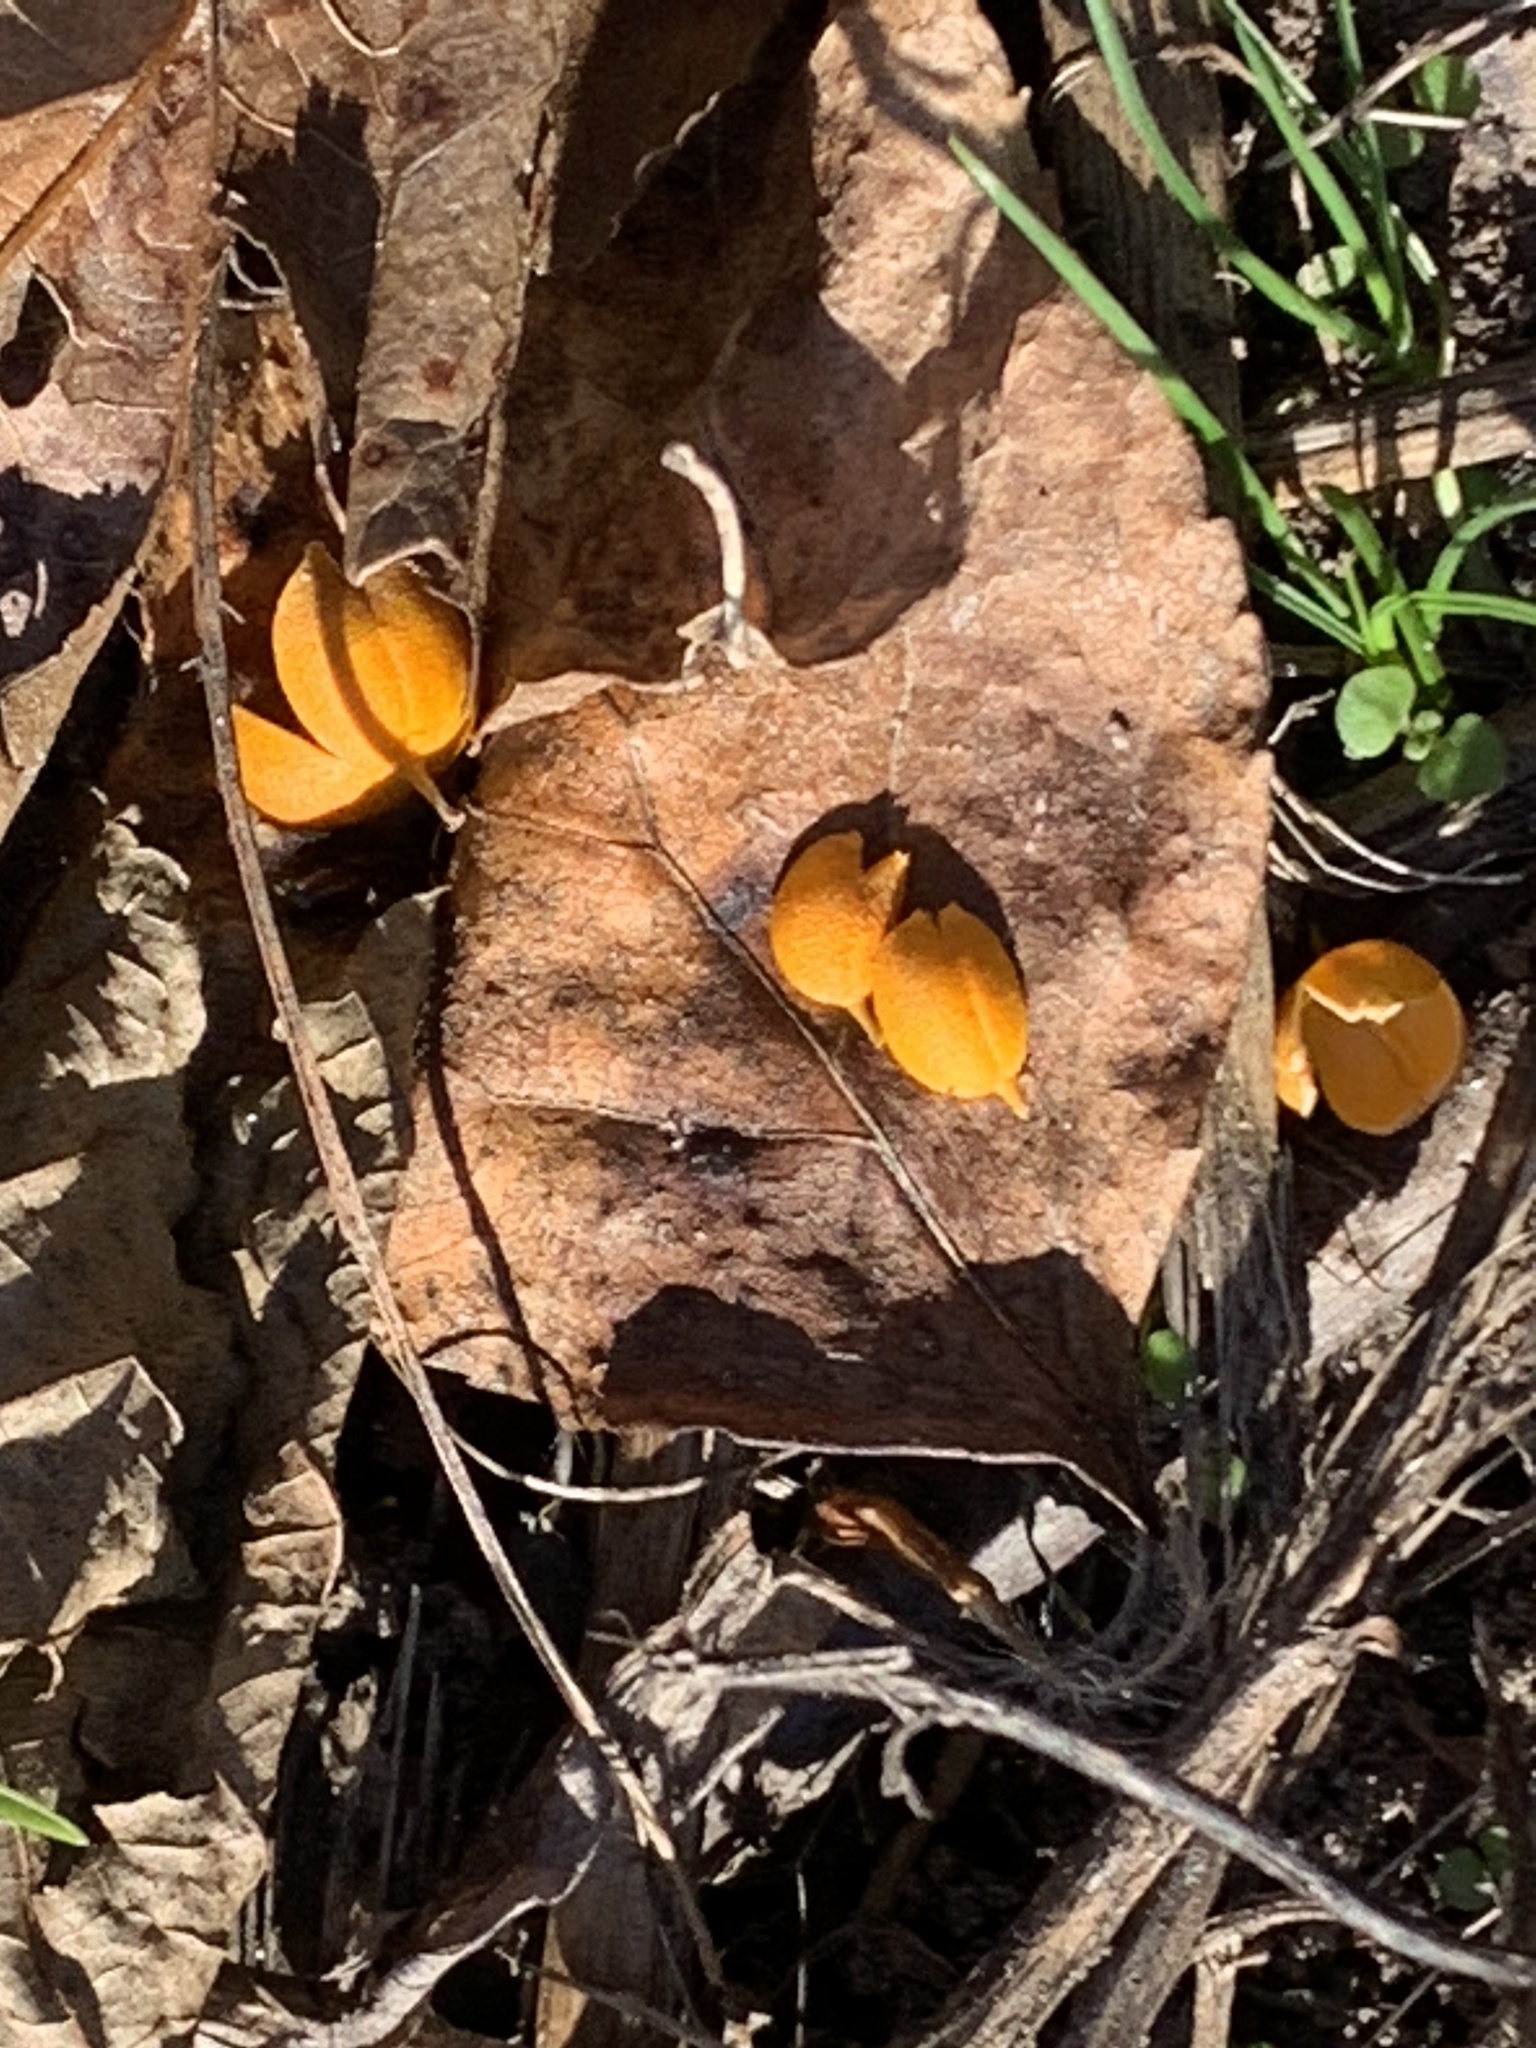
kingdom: Plantae
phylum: Tracheophyta
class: Magnoliopsida
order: Celastrales
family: Celastraceae
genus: Celastrus
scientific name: Celastrus orbiculatus
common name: Oriental bittersweet
